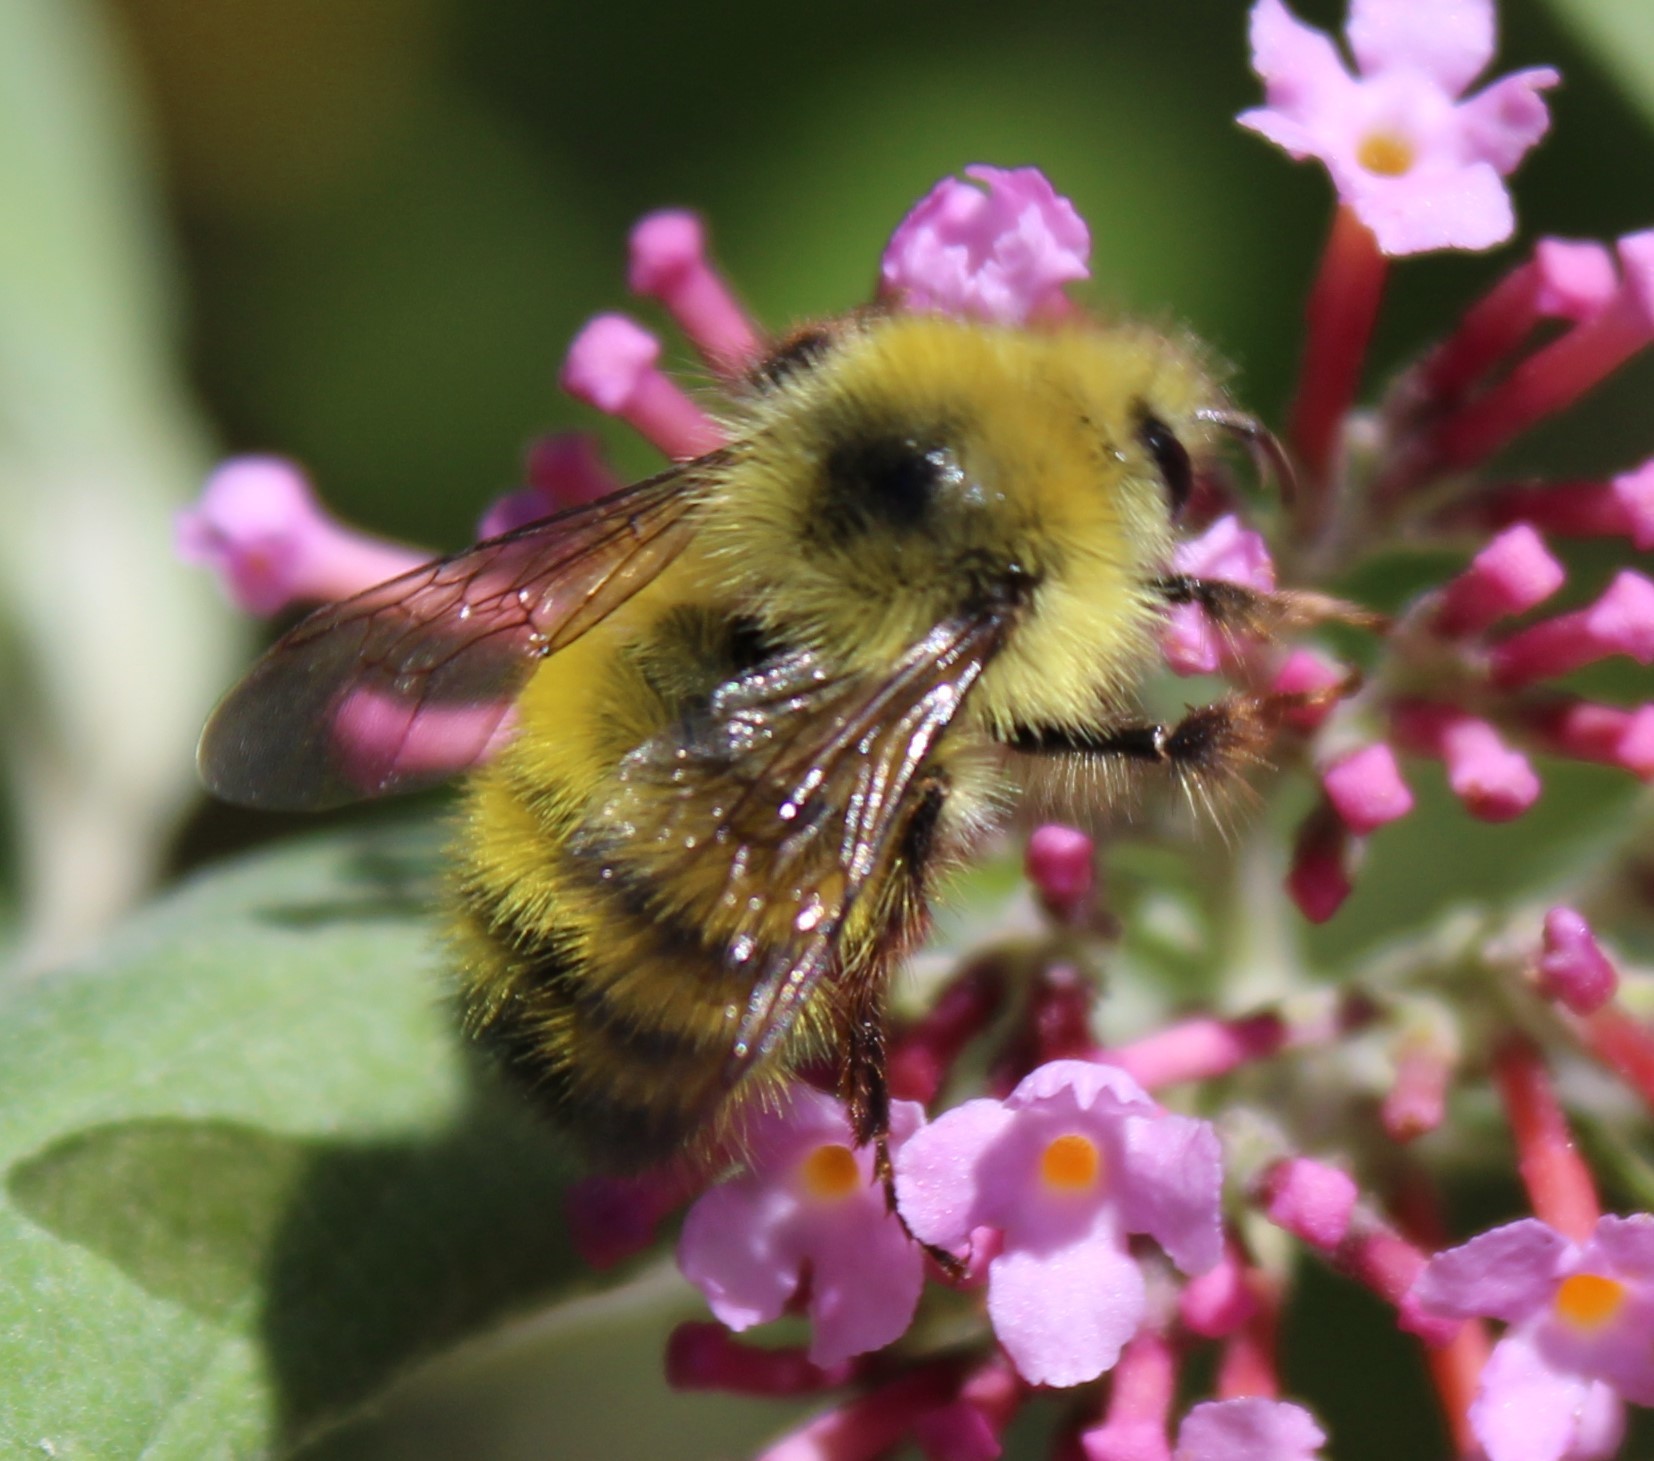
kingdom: Animalia
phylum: Arthropoda
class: Insecta
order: Hymenoptera
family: Apidae
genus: Bombus
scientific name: Bombus flavifrons
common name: Yellow head bumble bee
